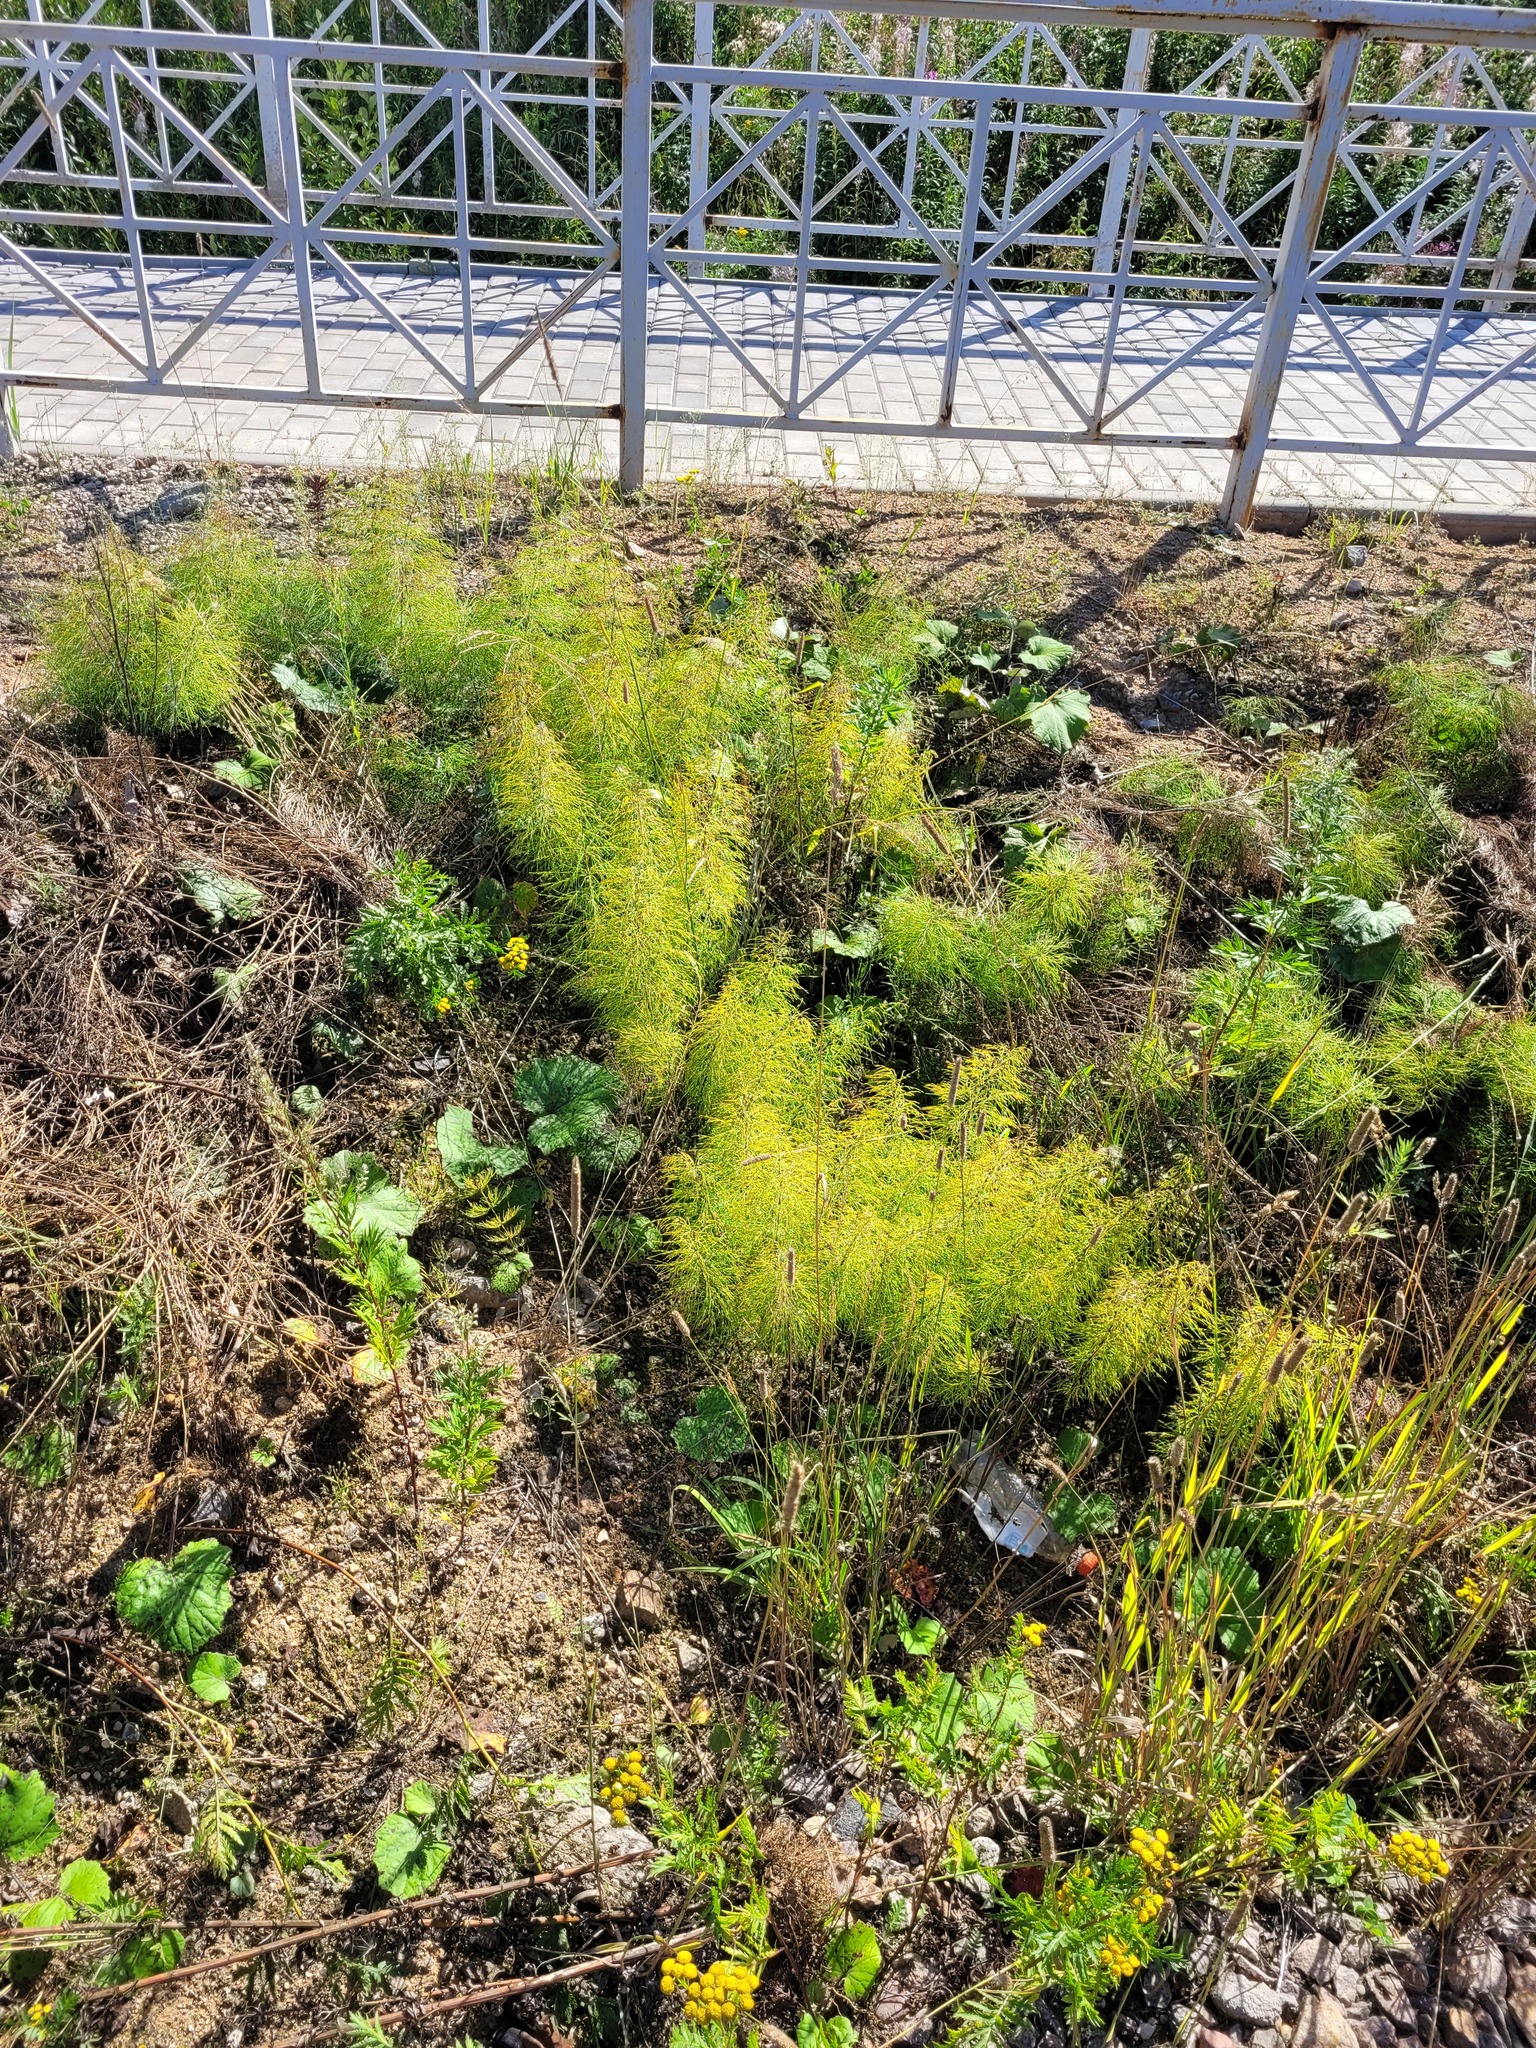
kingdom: Plantae
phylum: Tracheophyta
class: Polypodiopsida
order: Equisetales
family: Equisetaceae
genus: Equisetum
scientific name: Equisetum sylvaticum
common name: Wood horsetail
